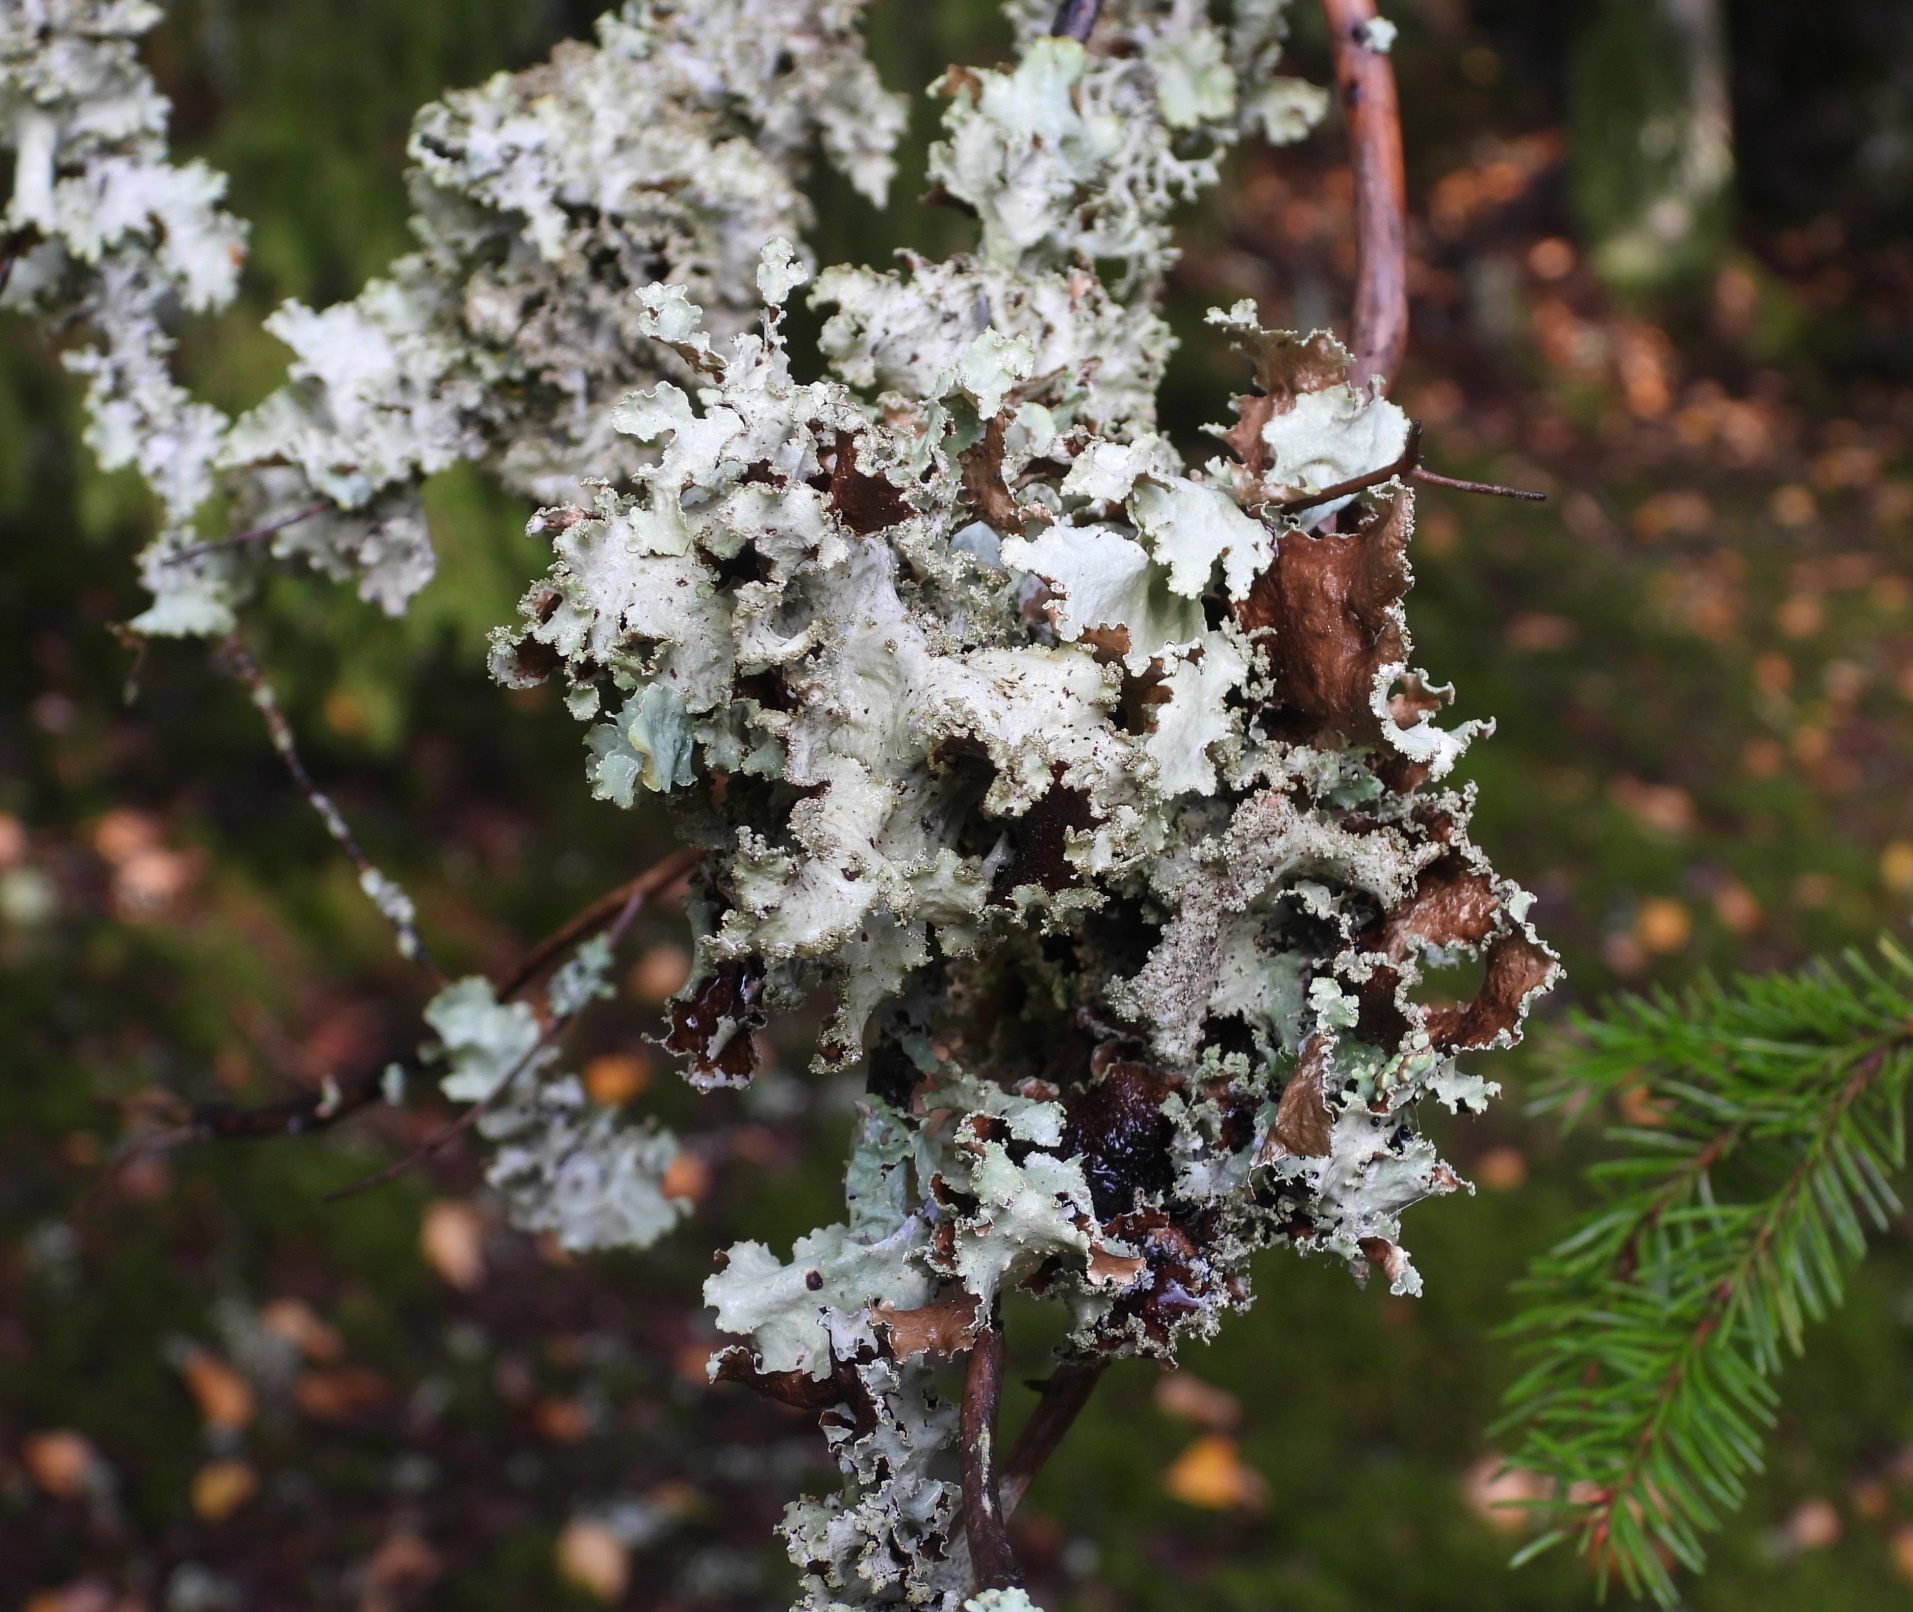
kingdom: Fungi
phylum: Ascomycota
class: Lecanoromycetes
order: Lecanorales
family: Parmeliaceae
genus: Platismatia
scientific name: Platismatia glauca
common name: Varied rag lichen
